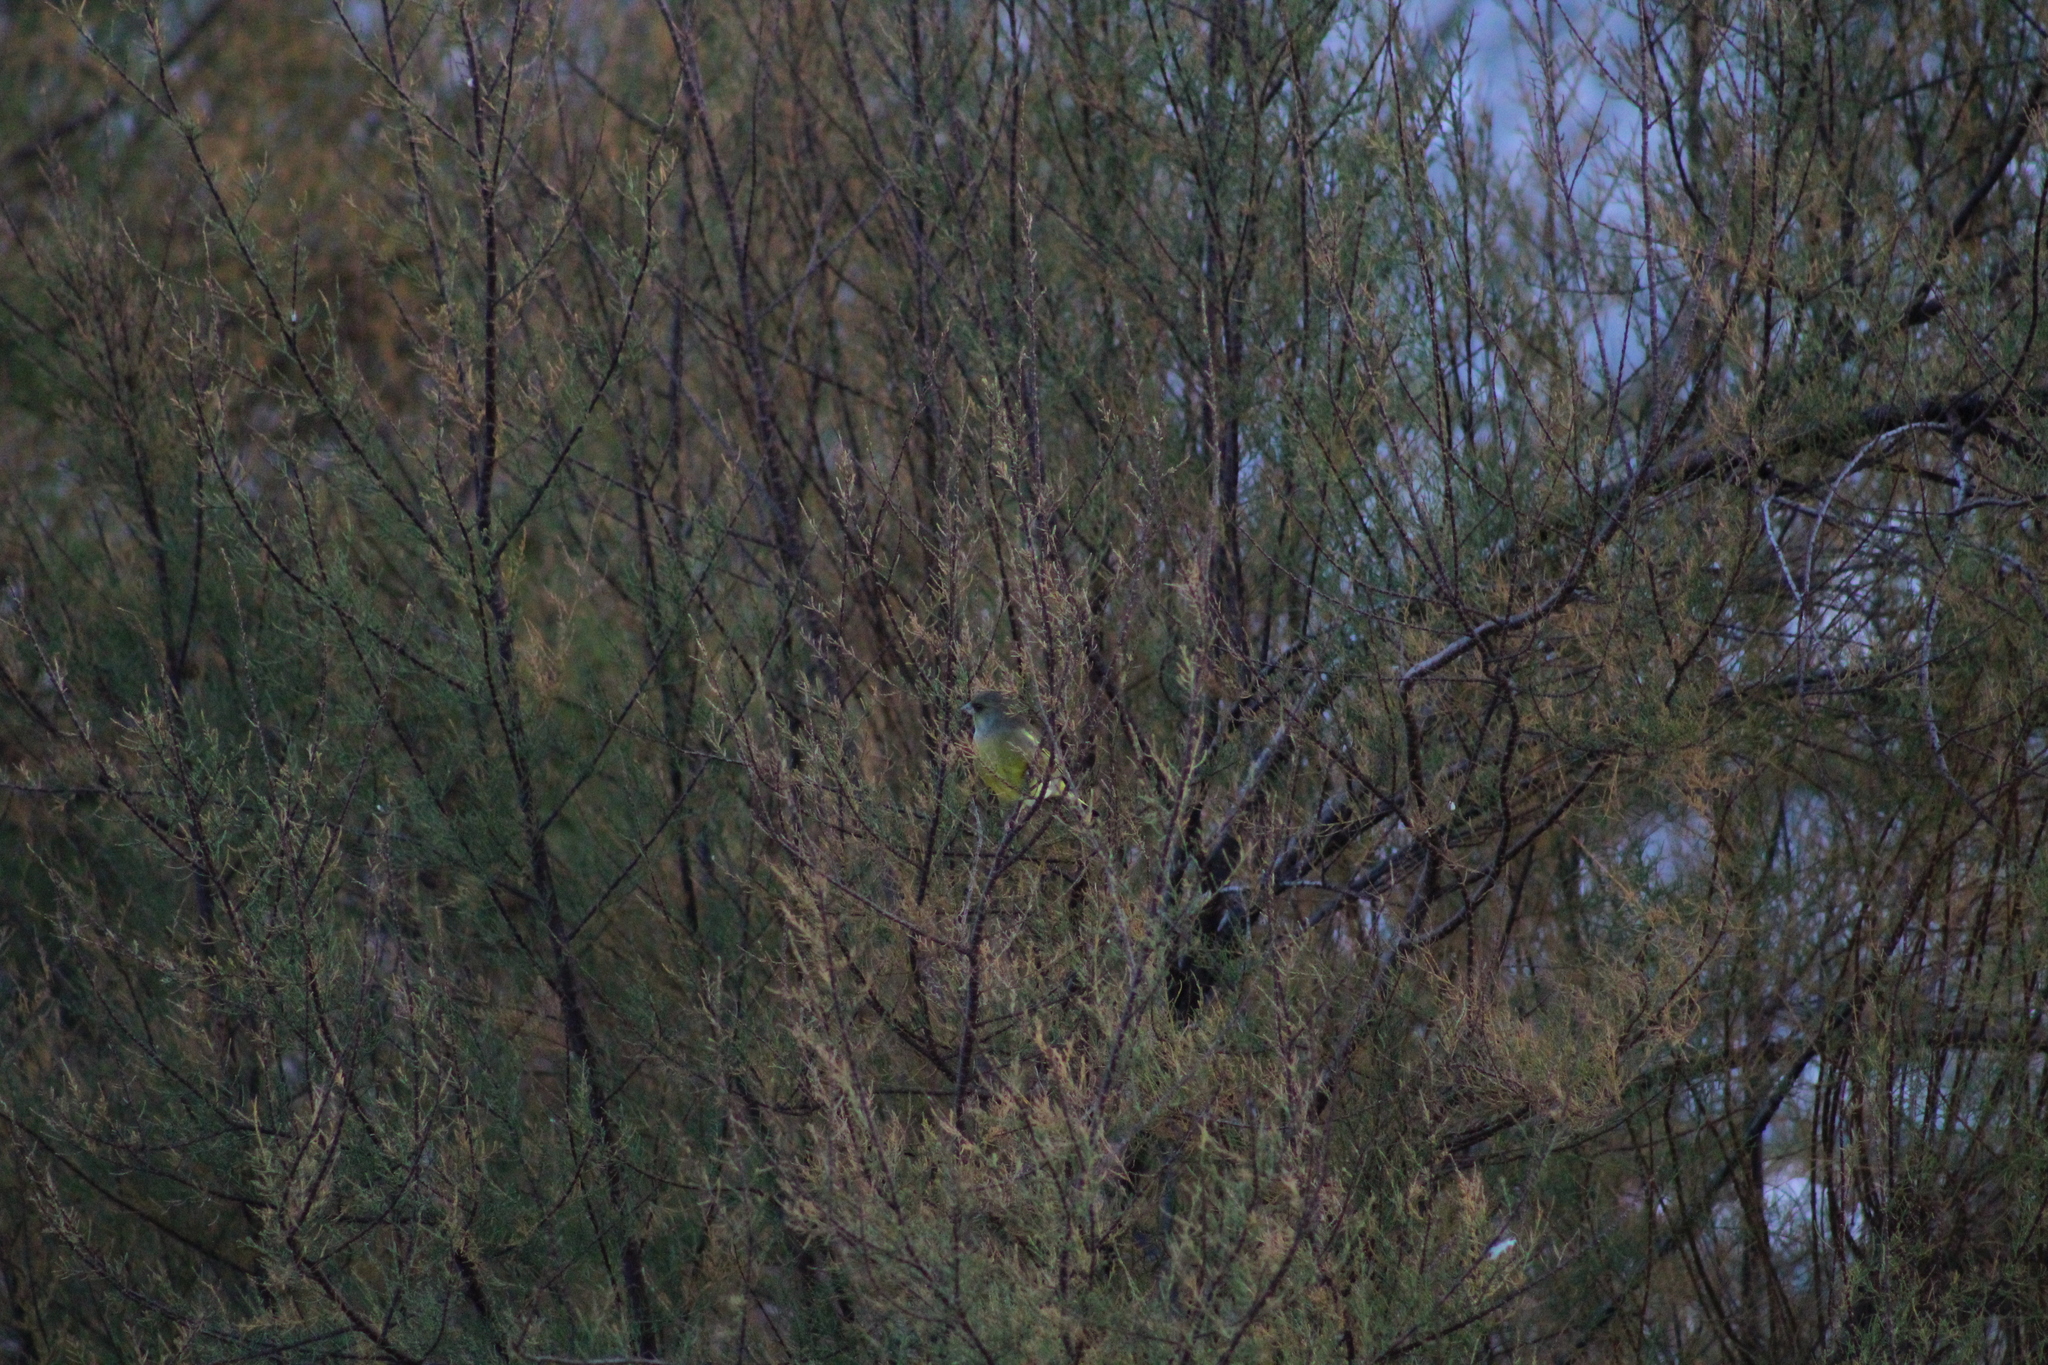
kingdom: Plantae
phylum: Tracheophyta
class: Liliopsida
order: Poales
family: Poaceae
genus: Chloris
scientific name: Chloris chloris
